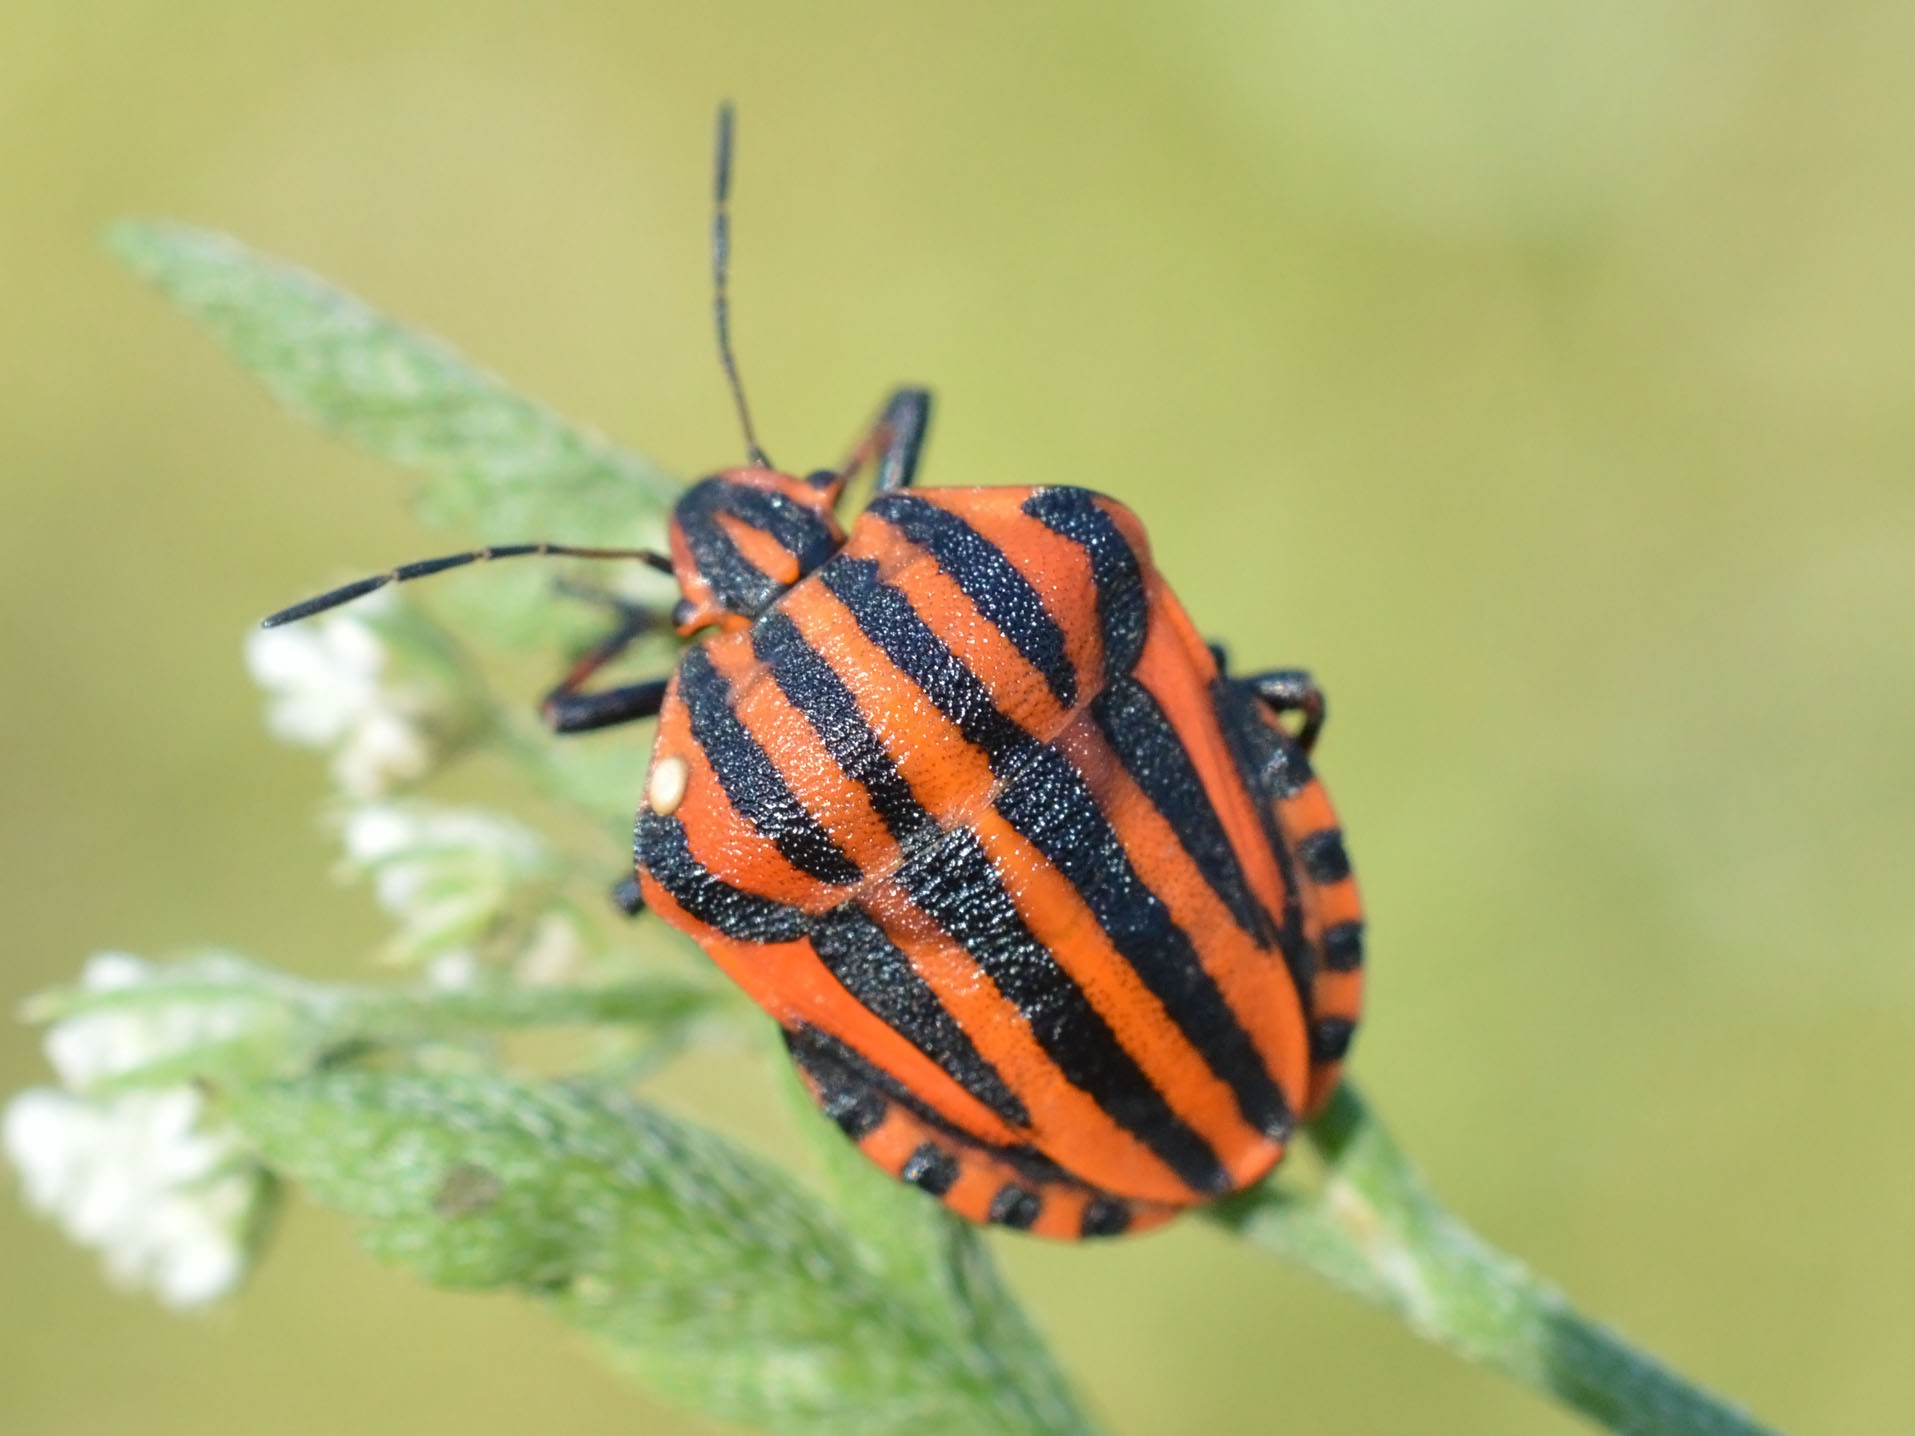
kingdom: Animalia
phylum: Arthropoda
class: Insecta
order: Hemiptera
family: Pentatomidae
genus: Graphosoma
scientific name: Graphosoma italicum
